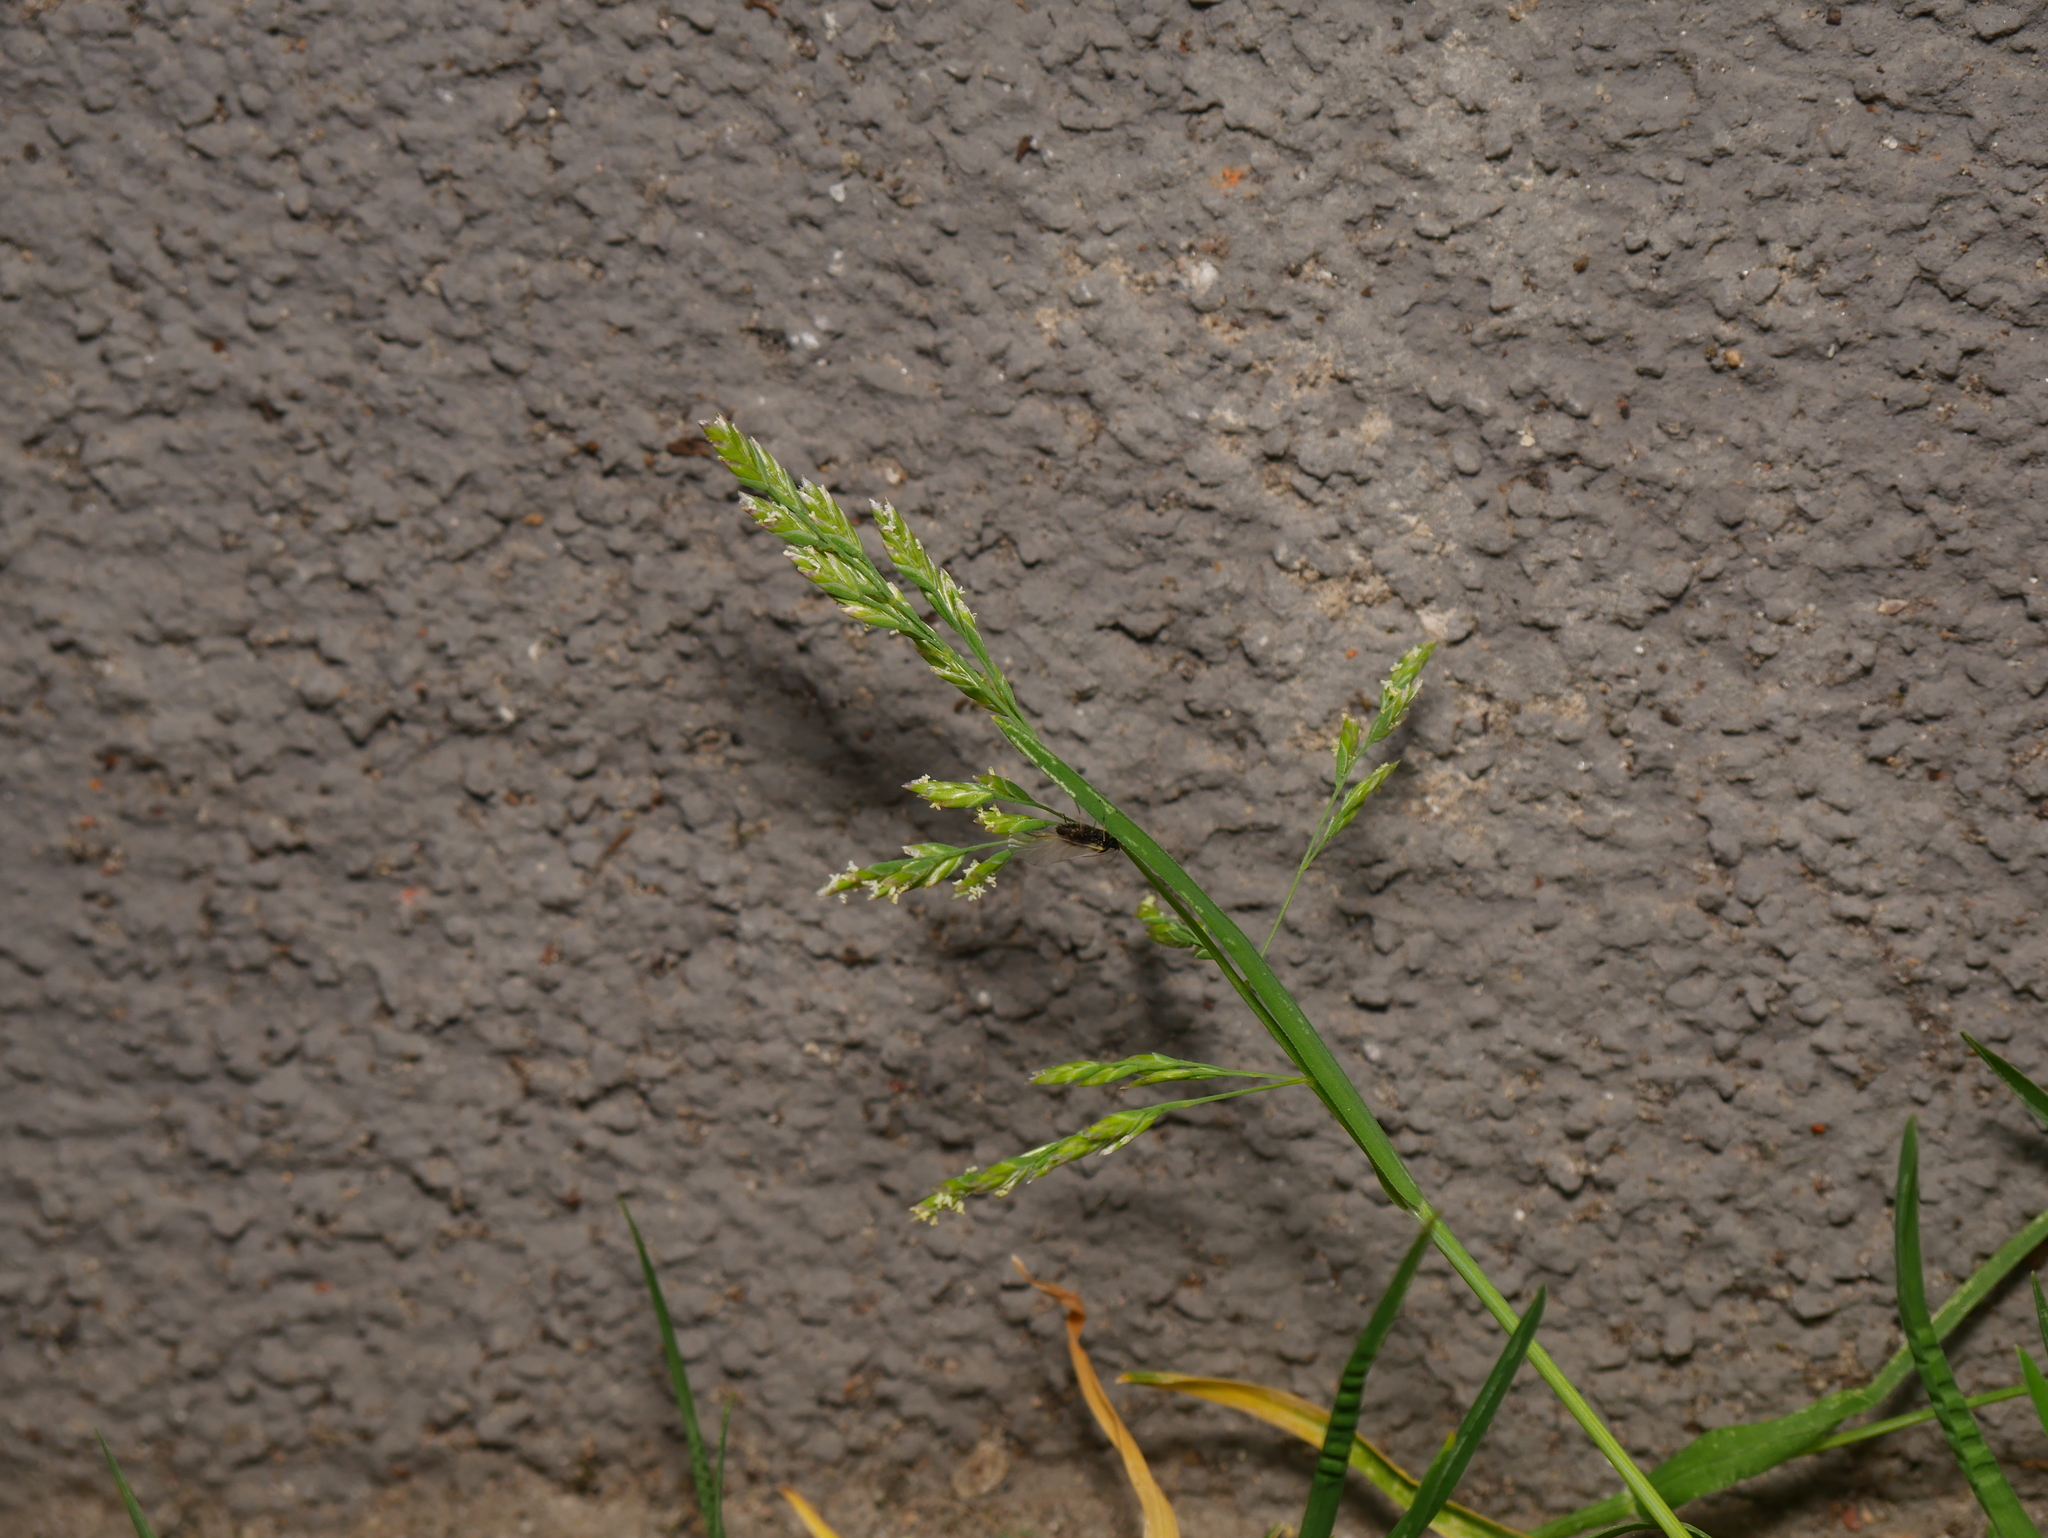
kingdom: Plantae
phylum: Tracheophyta
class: Liliopsida
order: Poales
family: Poaceae
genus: Poa
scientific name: Poa annua
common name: Annual bluegrass
